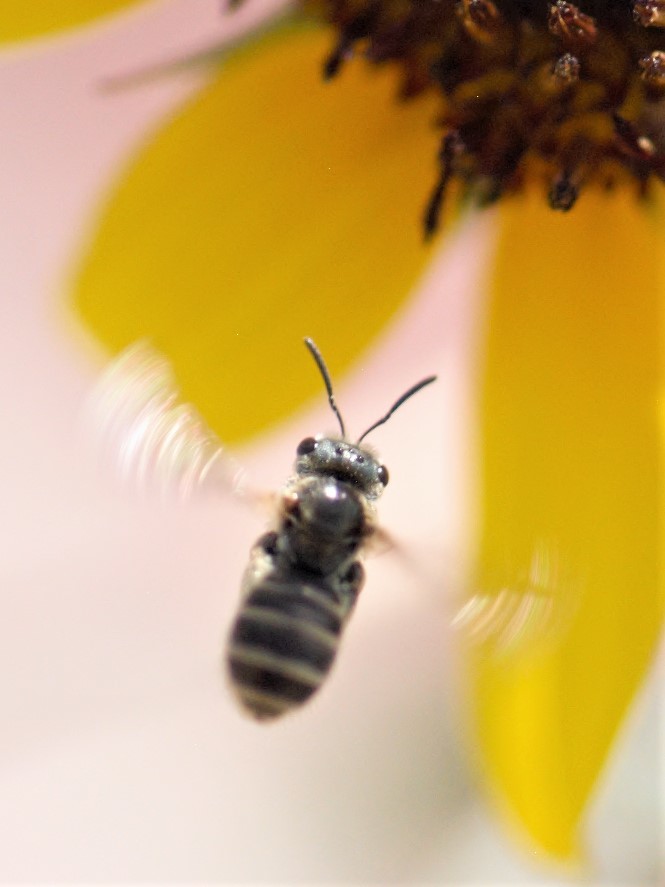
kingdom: Animalia
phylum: Arthropoda
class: Insecta
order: Hymenoptera
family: Halictidae
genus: Halictus
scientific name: Halictus tripartitus
